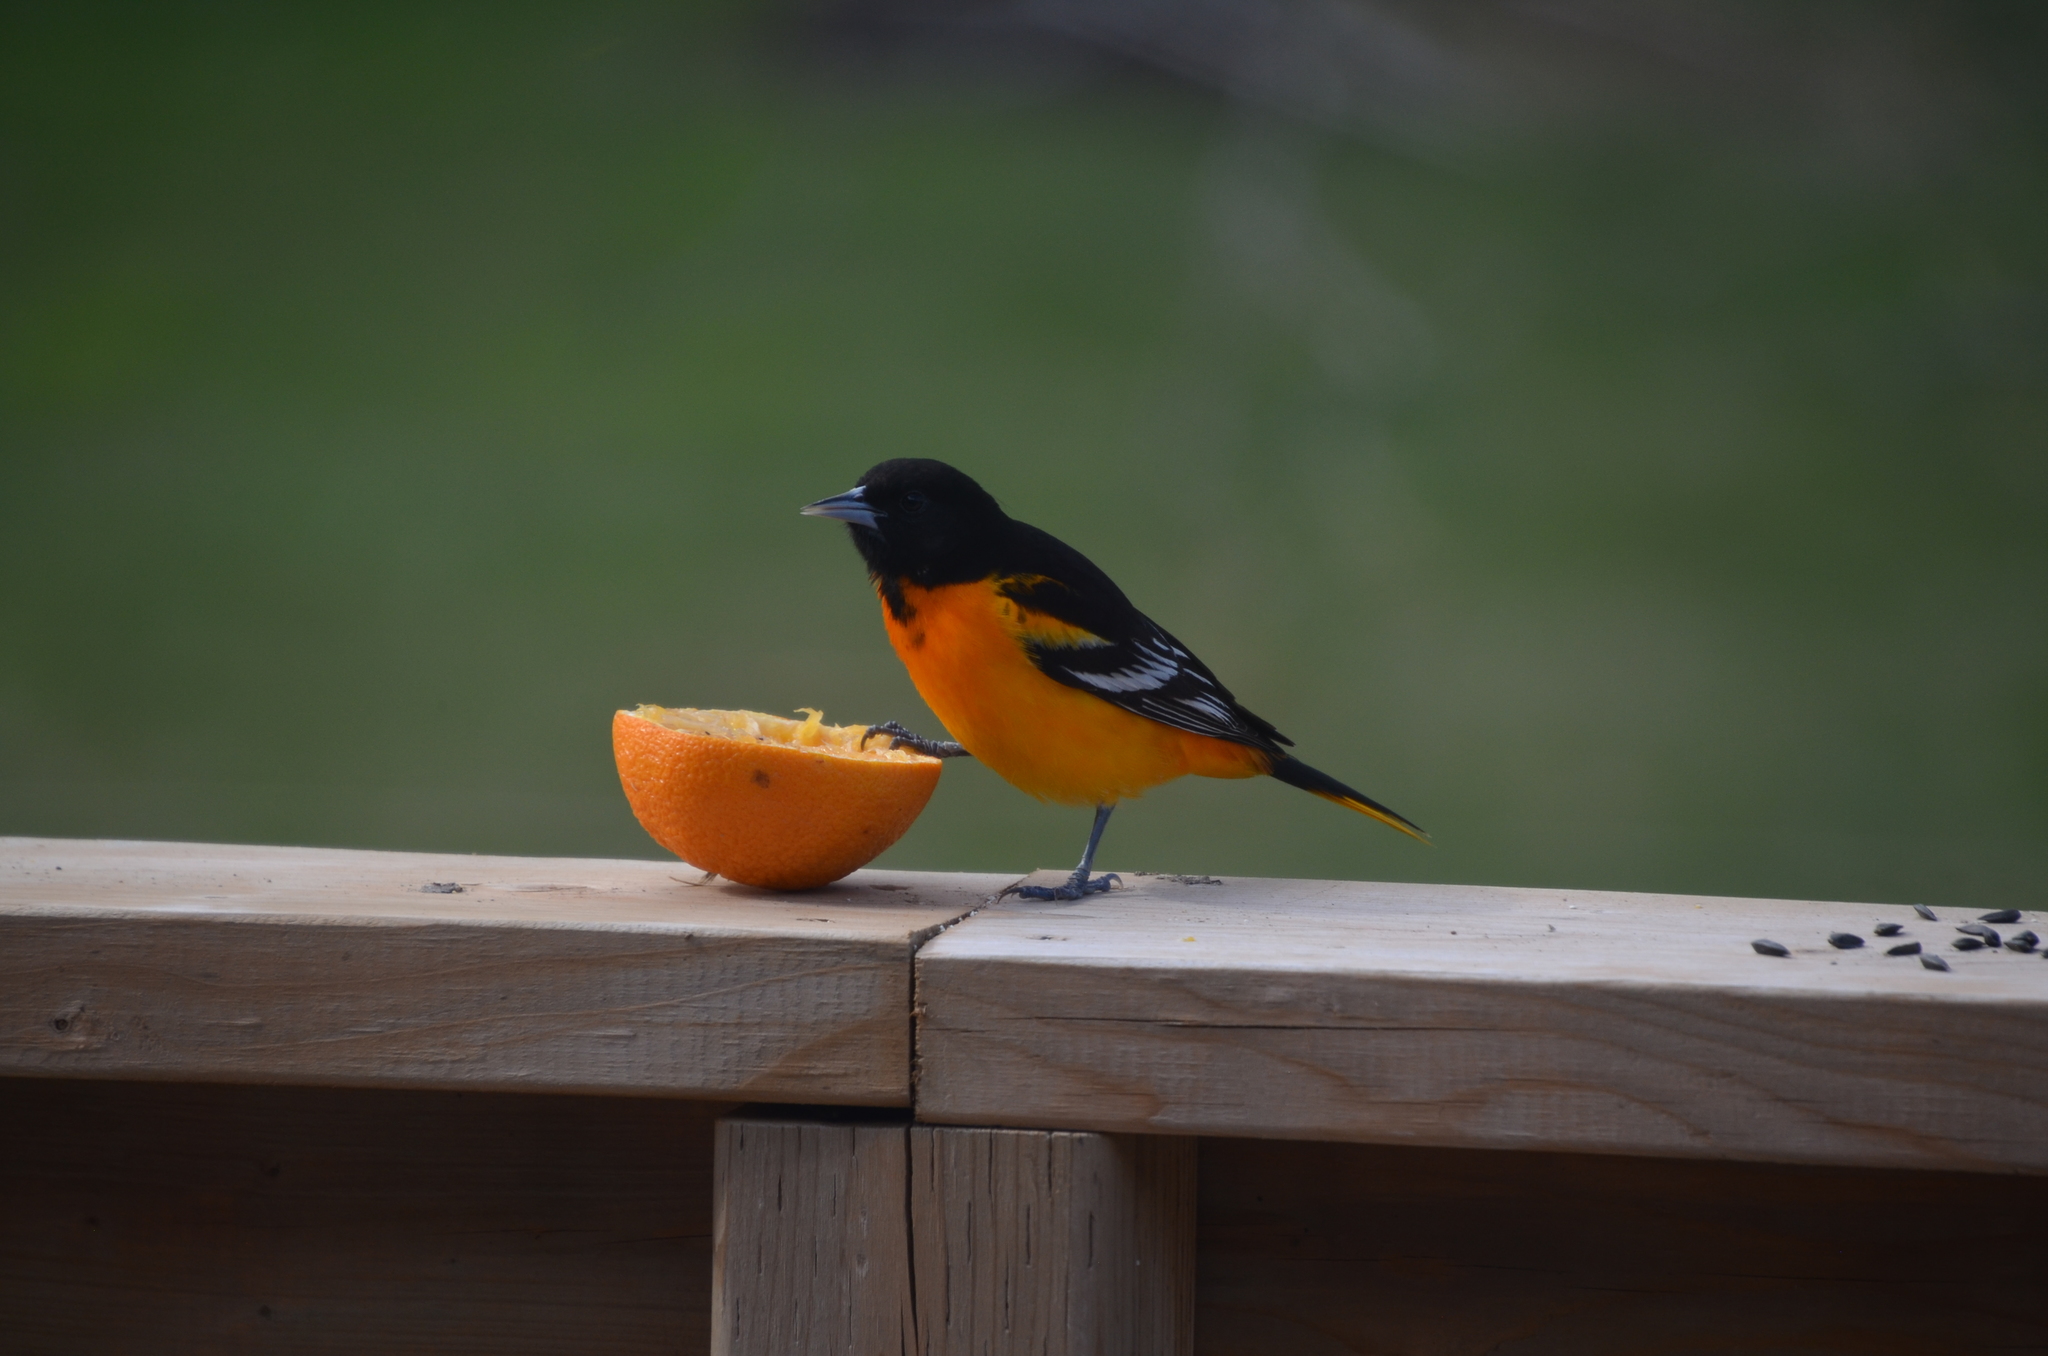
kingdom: Animalia
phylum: Chordata
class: Aves
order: Passeriformes
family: Icteridae
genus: Icterus
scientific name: Icterus galbula
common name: Baltimore oriole
